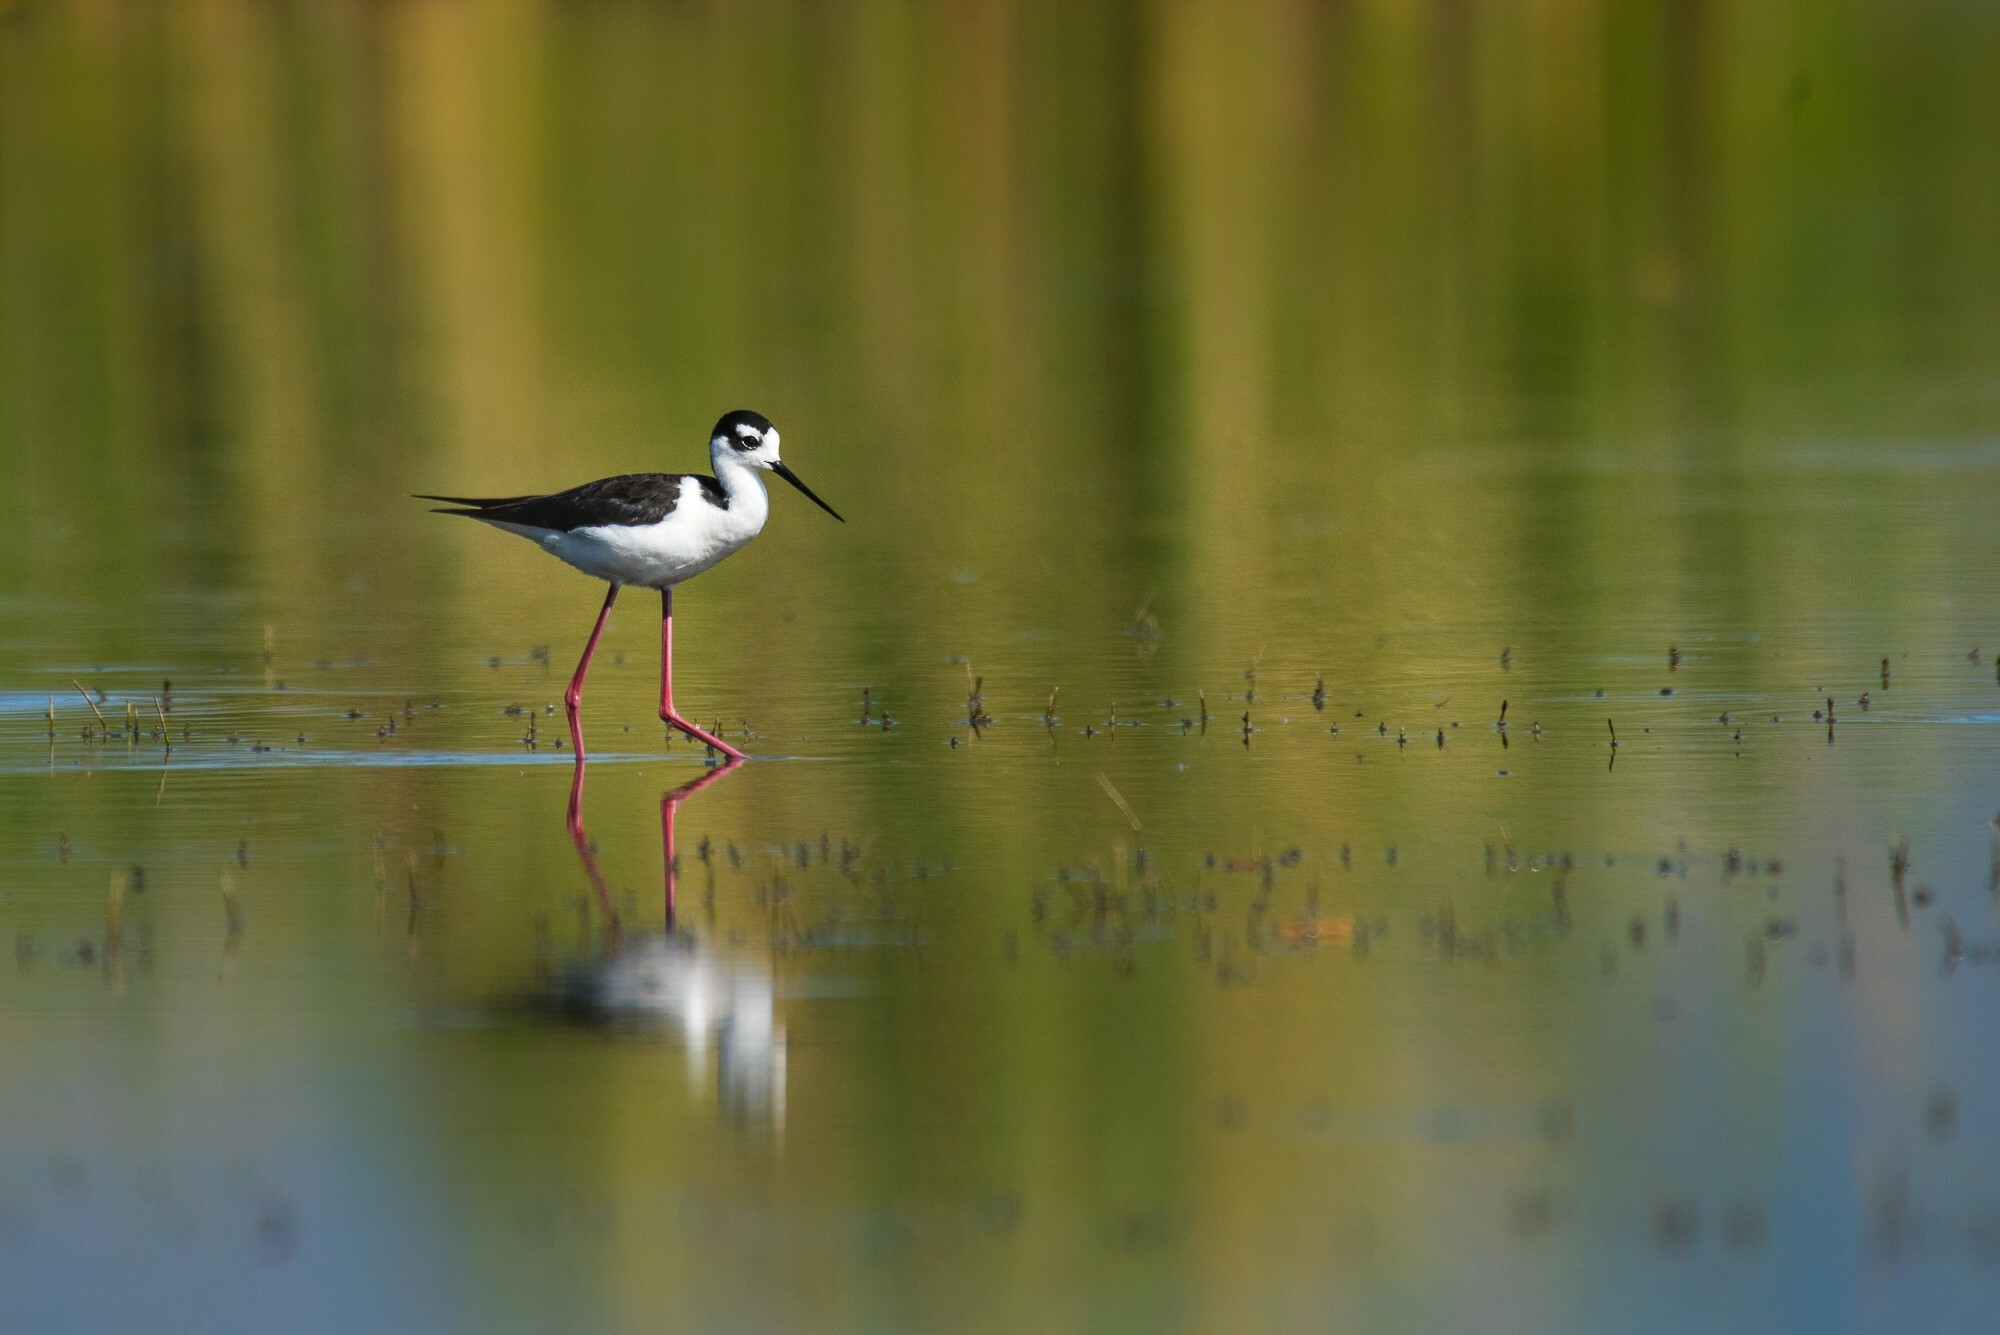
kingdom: Animalia
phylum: Chordata
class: Aves
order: Charadriiformes
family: Recurvirostridae
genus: Himantopus
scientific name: Himantopus mexicanus
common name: Black-necked stilt
